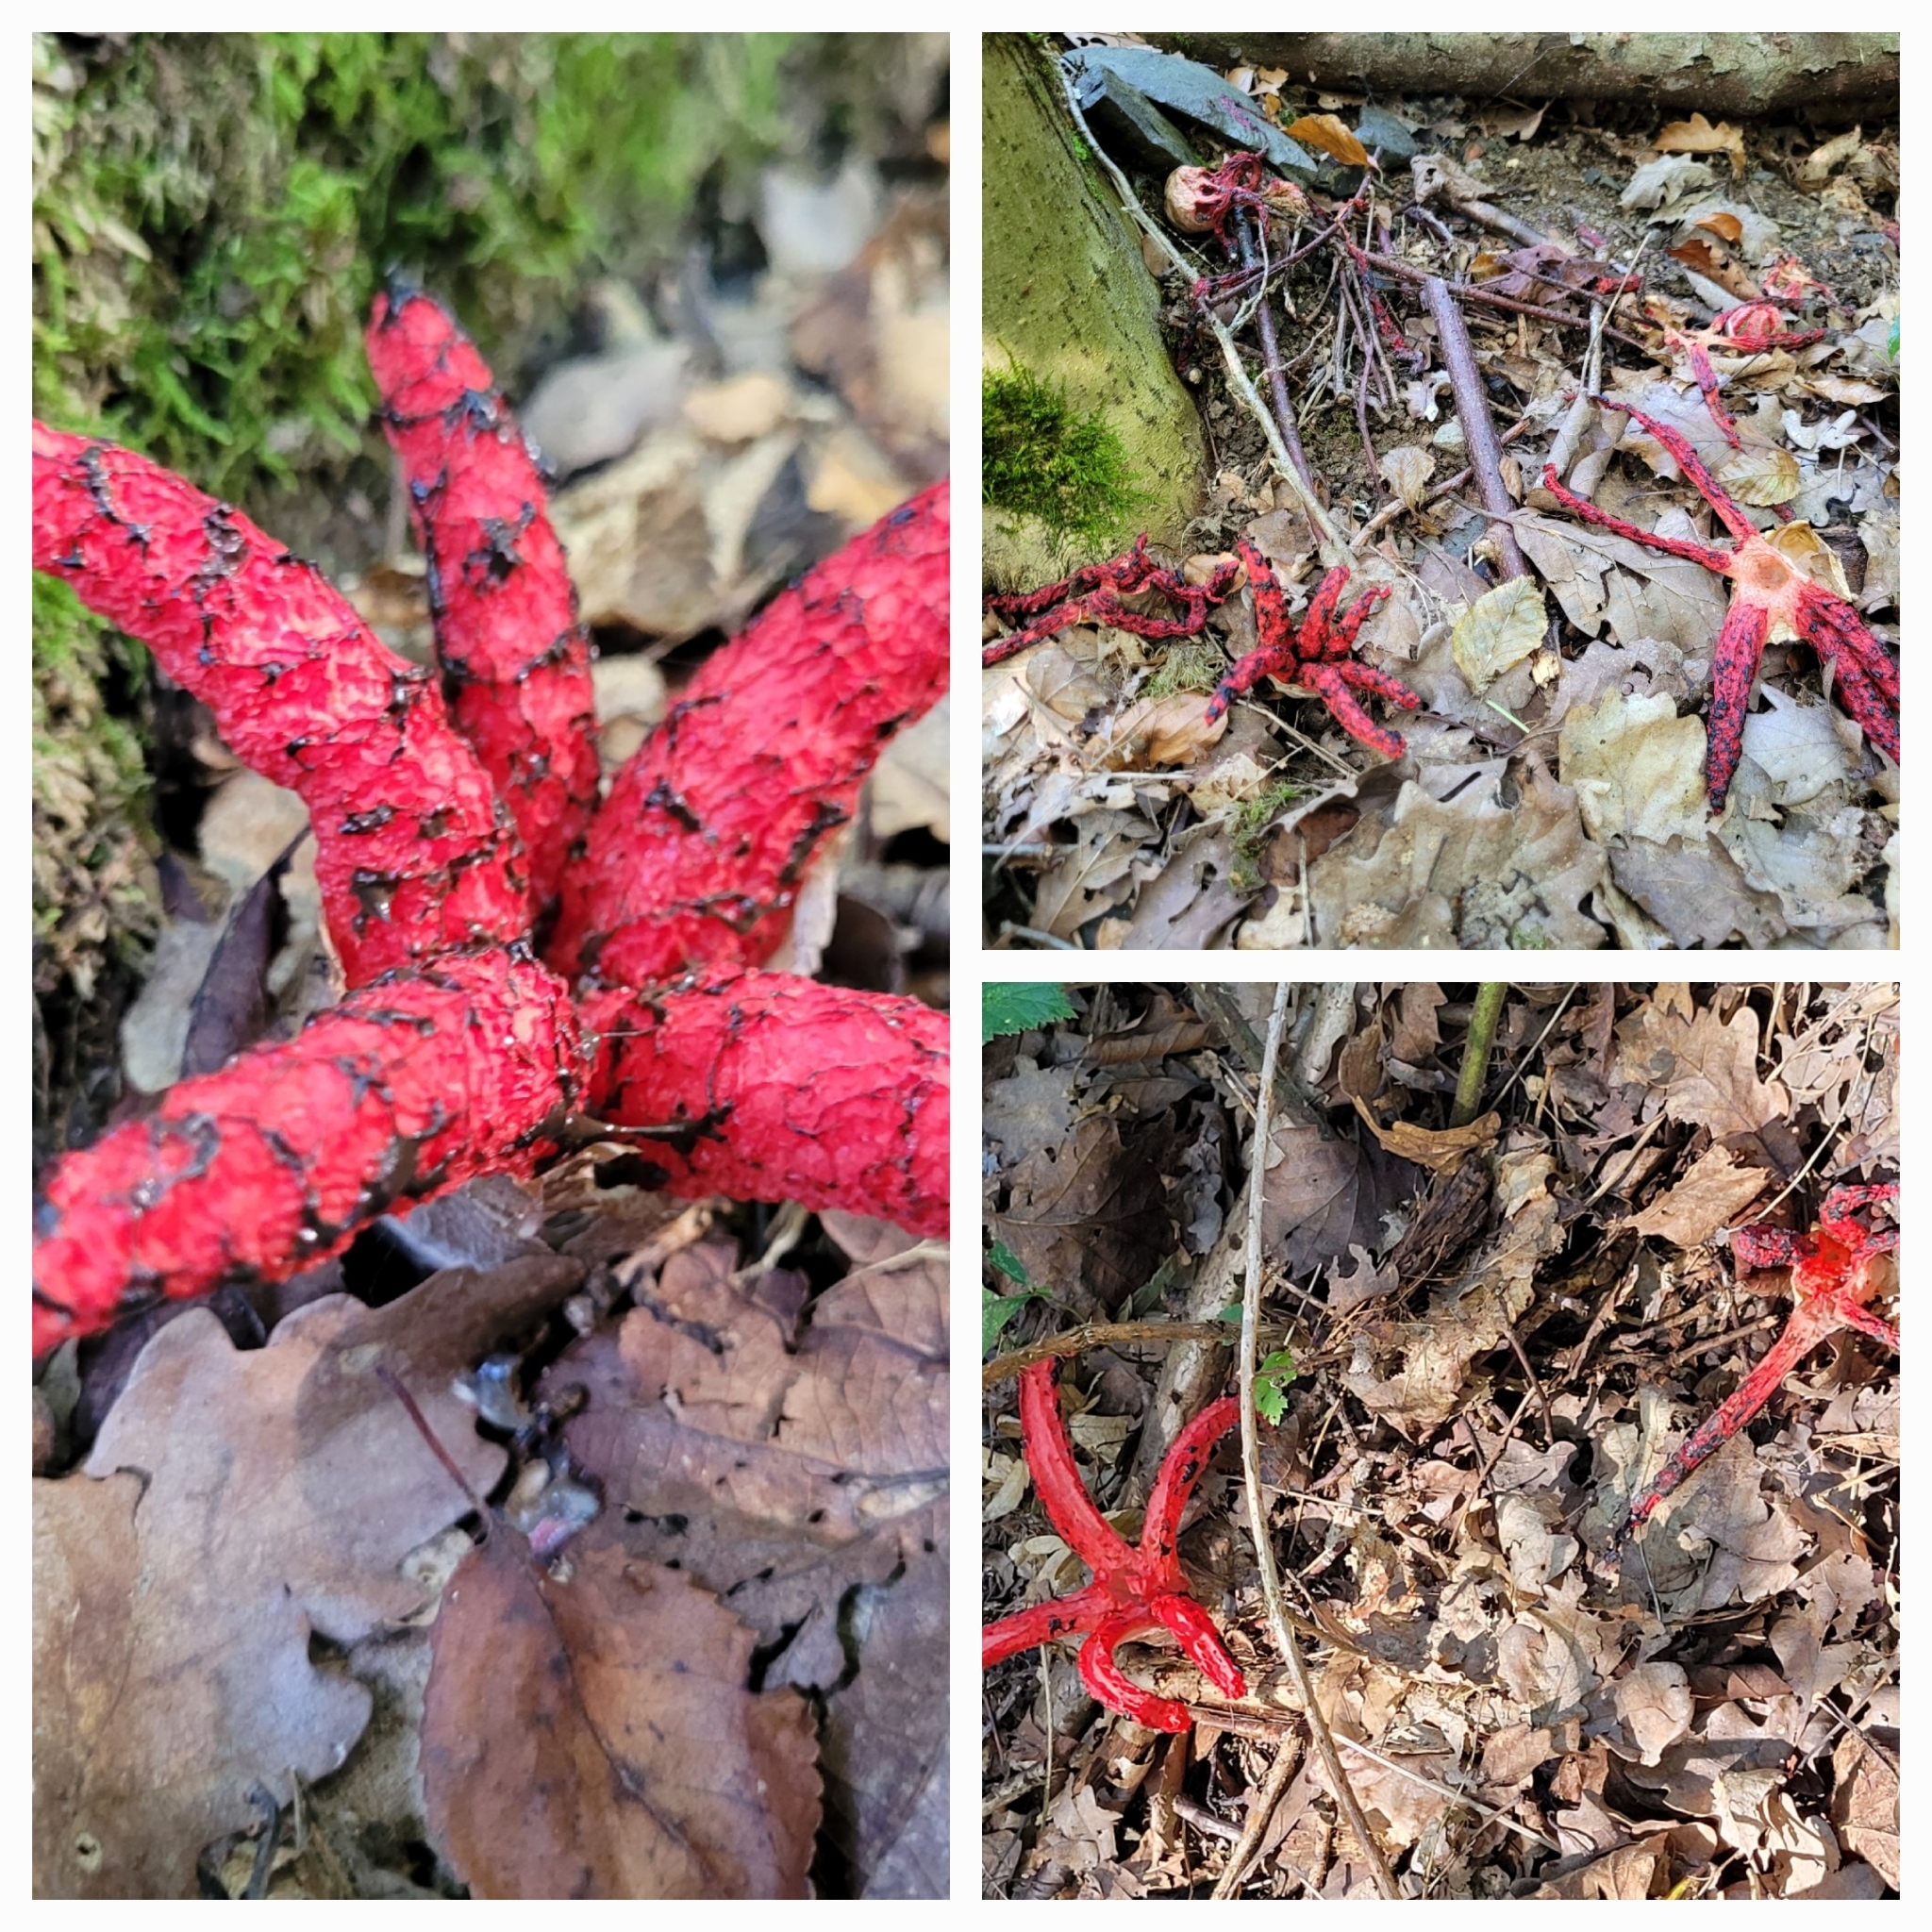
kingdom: Fungi
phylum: Basidiomycota
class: Agaricomycetes
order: Phallales
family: Phallaceae
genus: Clathrus
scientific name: Clathrus archeri
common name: Devil's fingers
